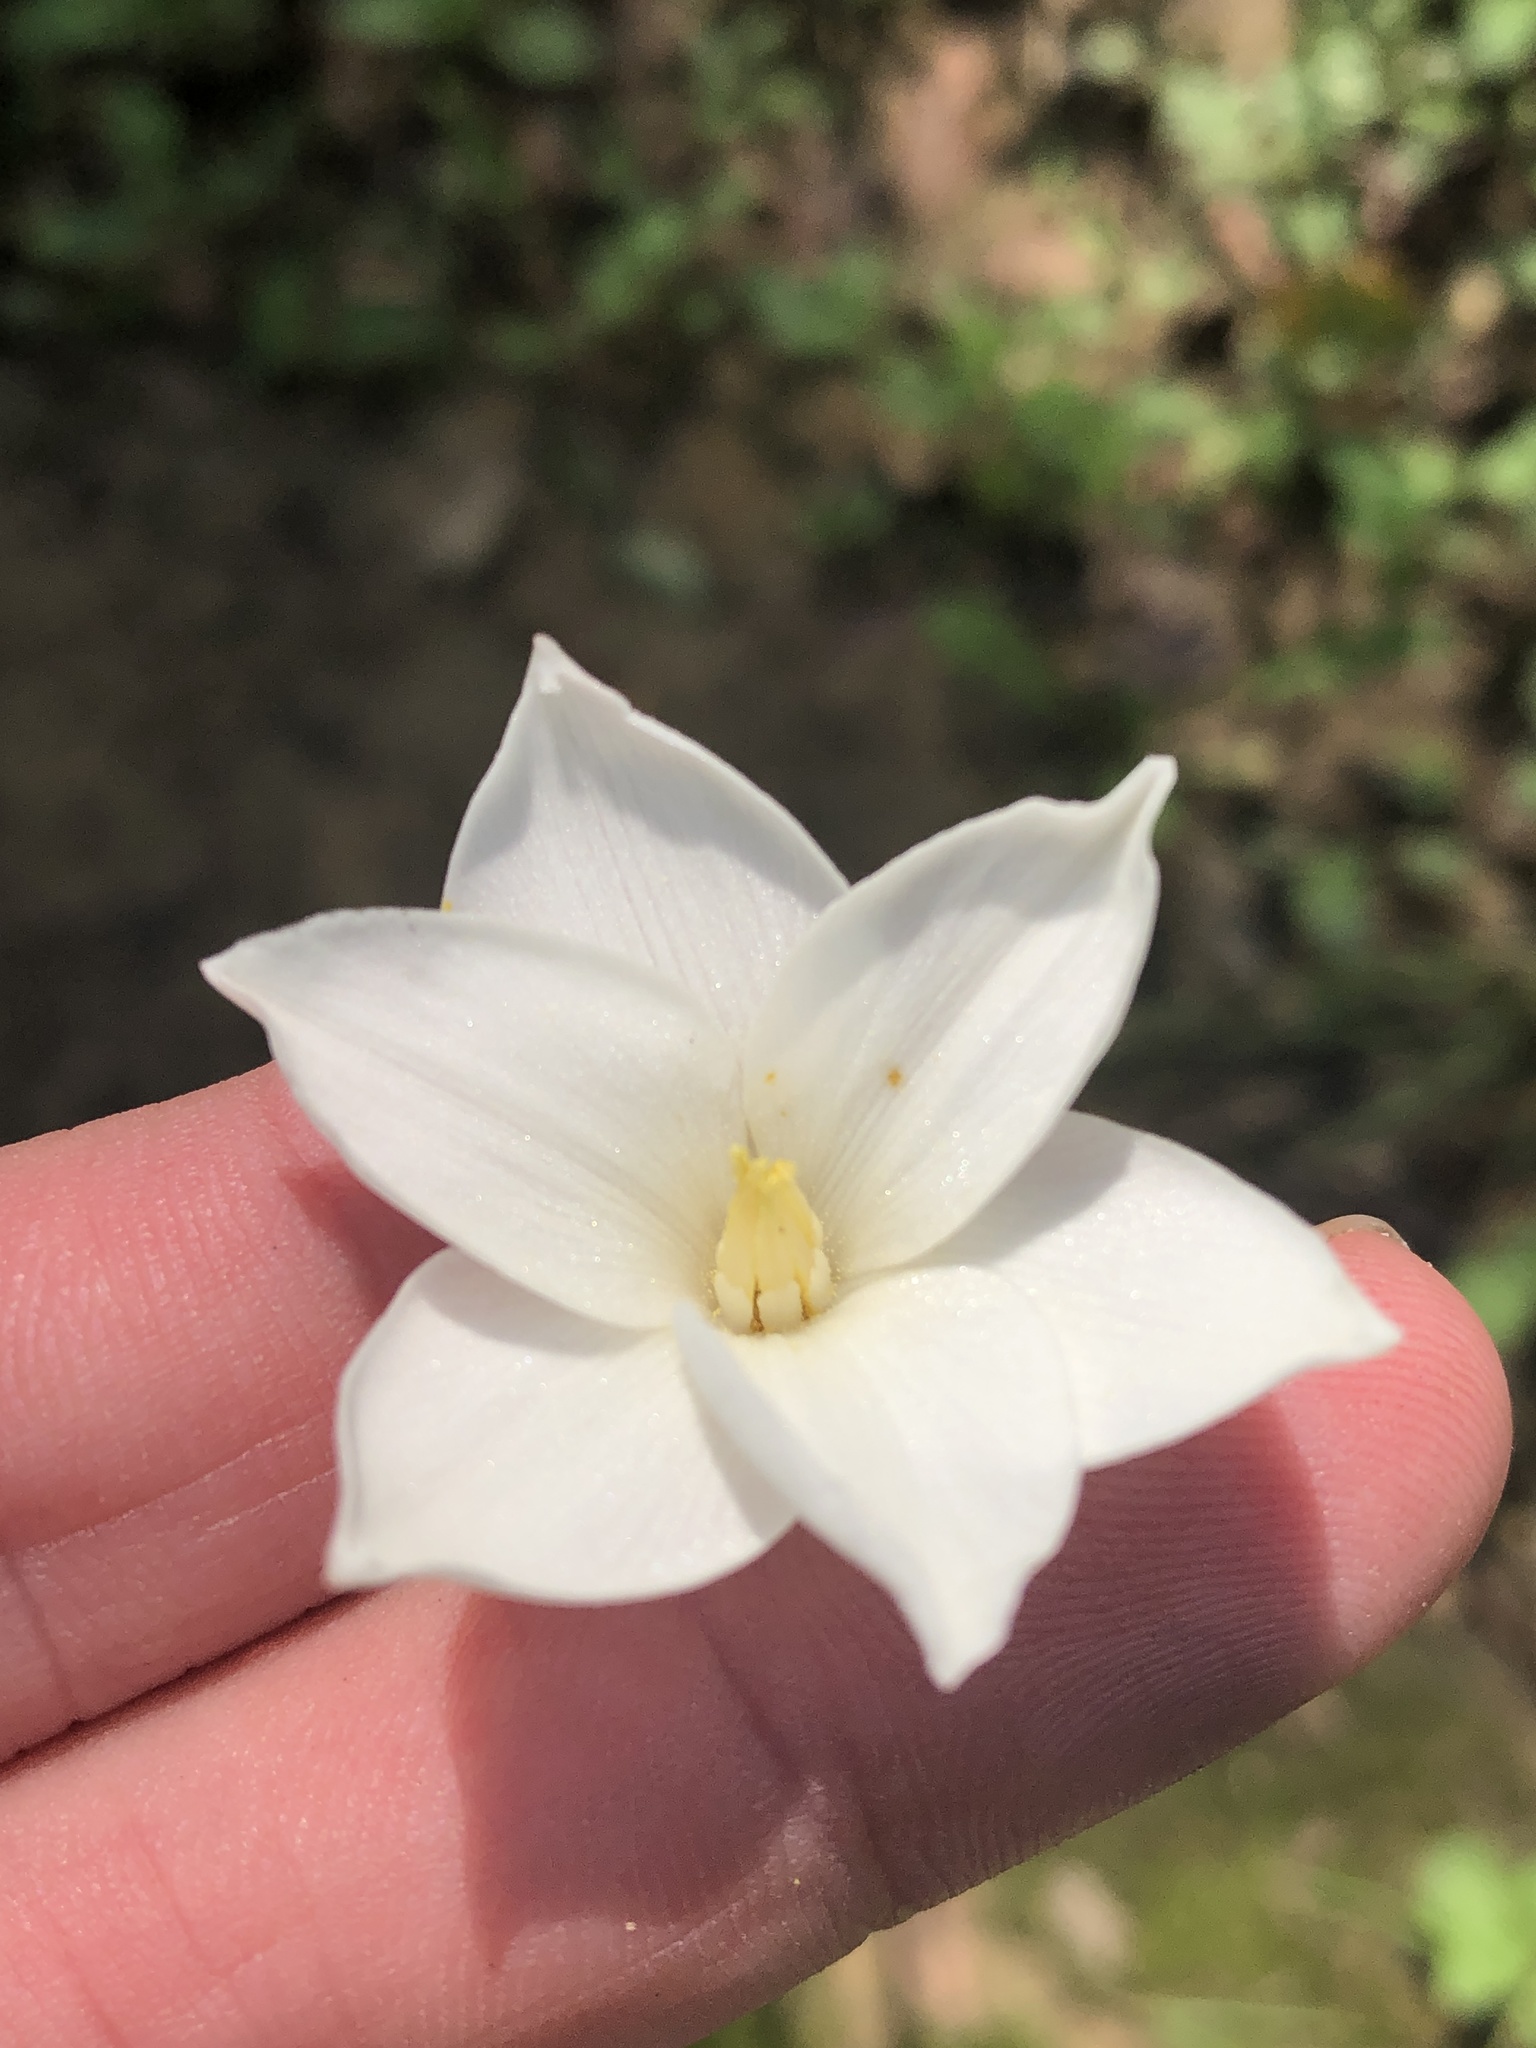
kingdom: Plantae
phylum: Tracheophyta
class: Liliopsida
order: Asparagales
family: Amaryllidaceae
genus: Zephyranthes
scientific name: Zephyranthes chlorosolen
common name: Evening rain-lily
